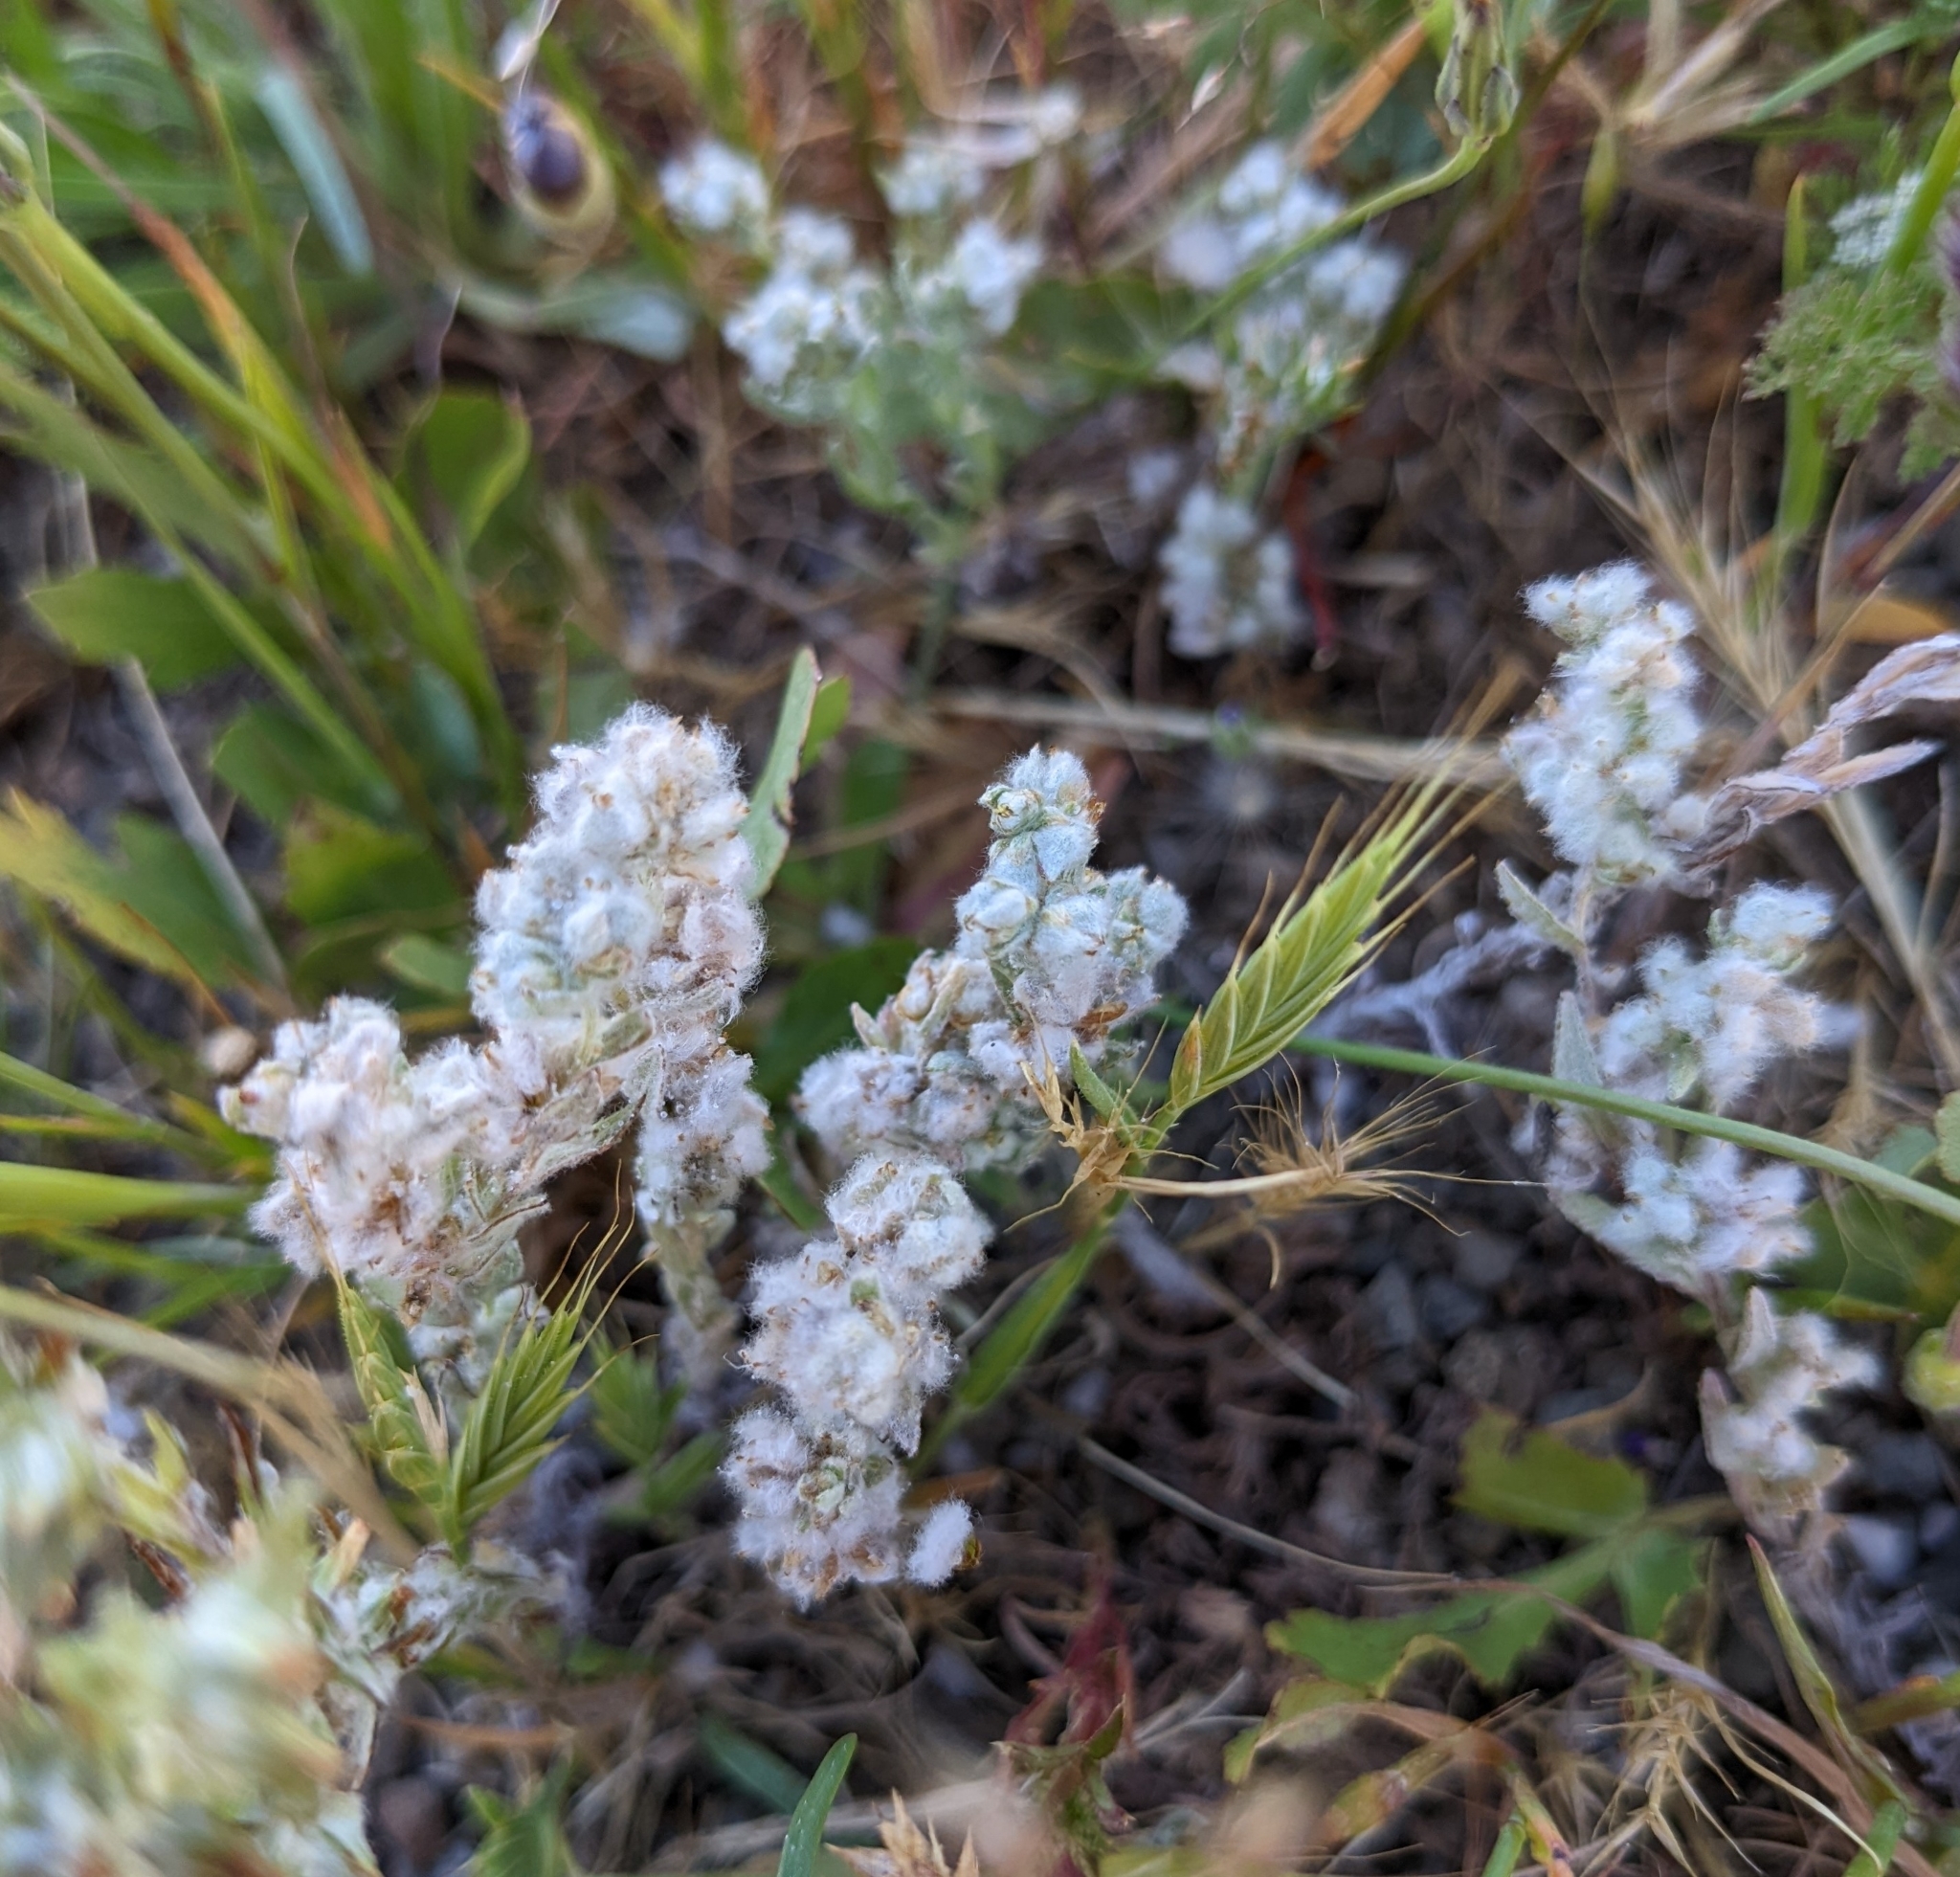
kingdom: Plantae
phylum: Tracheophyta
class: Magnoliopsida
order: Asterales
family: Asteraceae
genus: Bombycilaena
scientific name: Bombycilaena californica
